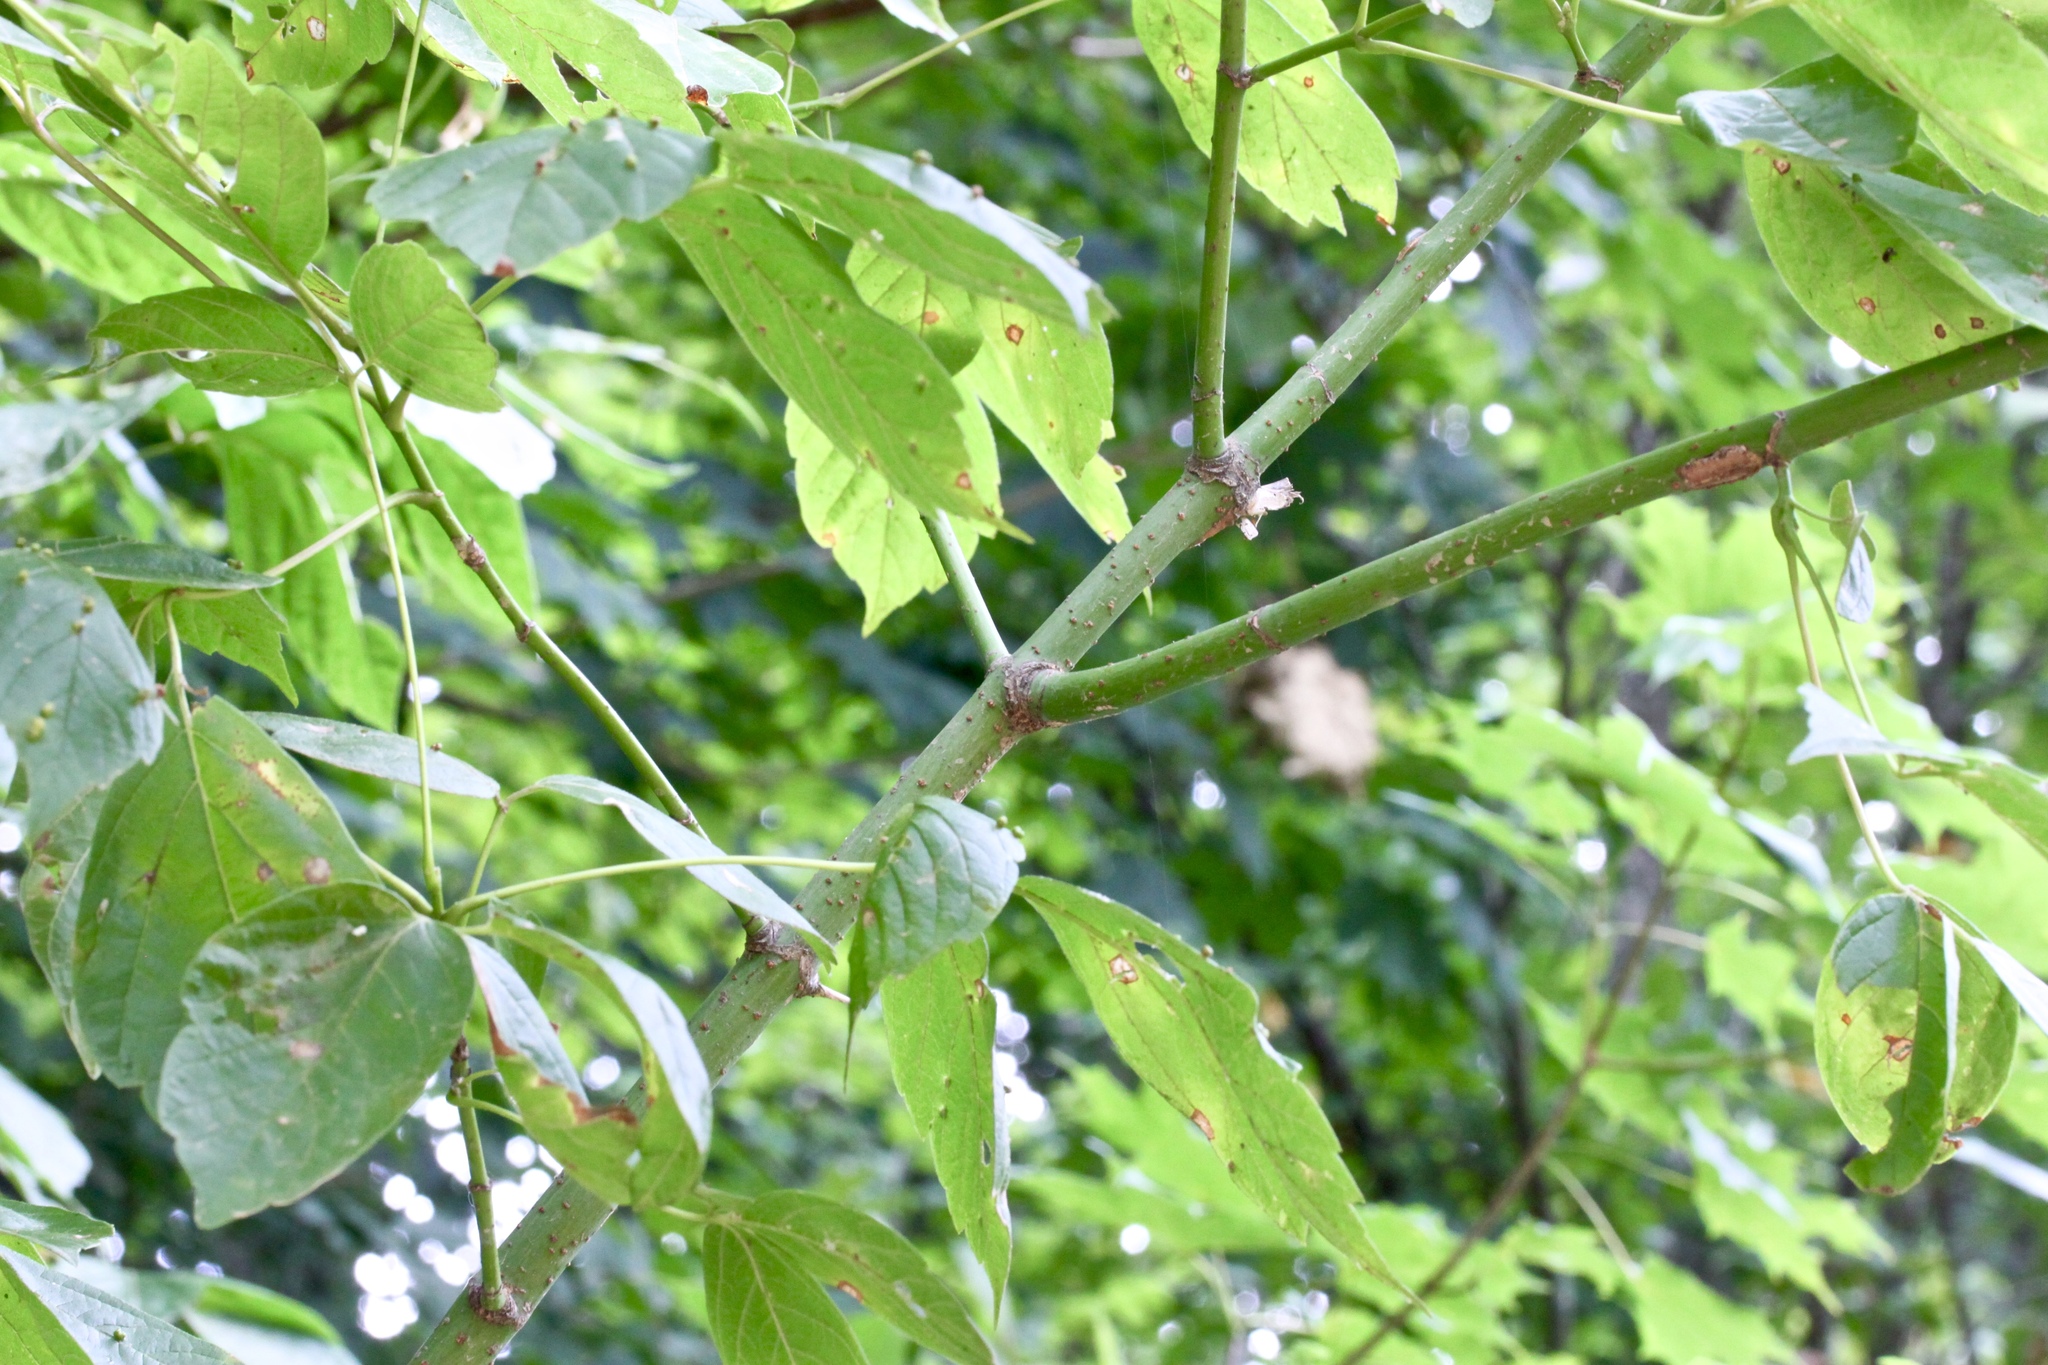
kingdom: Plantae
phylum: Tracheophyta
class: Magnoliopsida
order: Sapindales
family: Sapindaceae
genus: Acer
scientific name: Acer negundo
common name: Ashleaf maple
